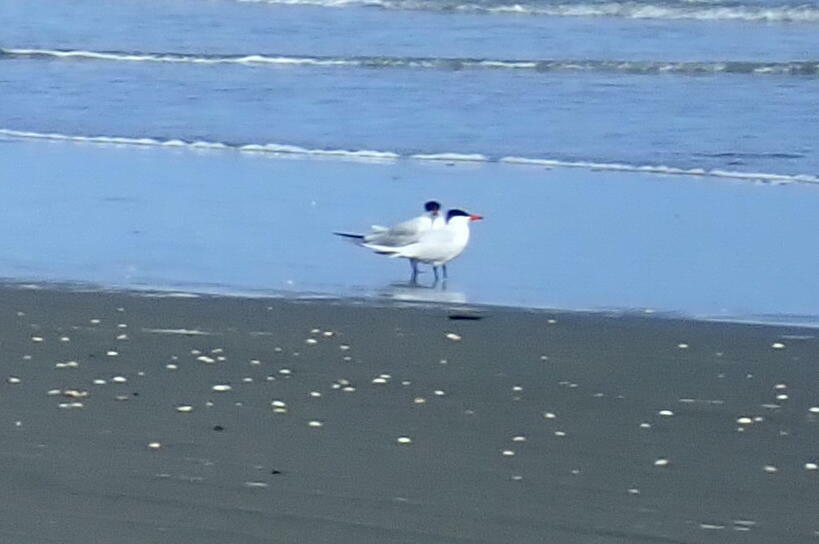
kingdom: Animalia
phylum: Chordata
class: Aves
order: Charadriiformes
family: Laridae
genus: Hydroprogne
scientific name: Hydroprogne caspia
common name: Caspian tern
